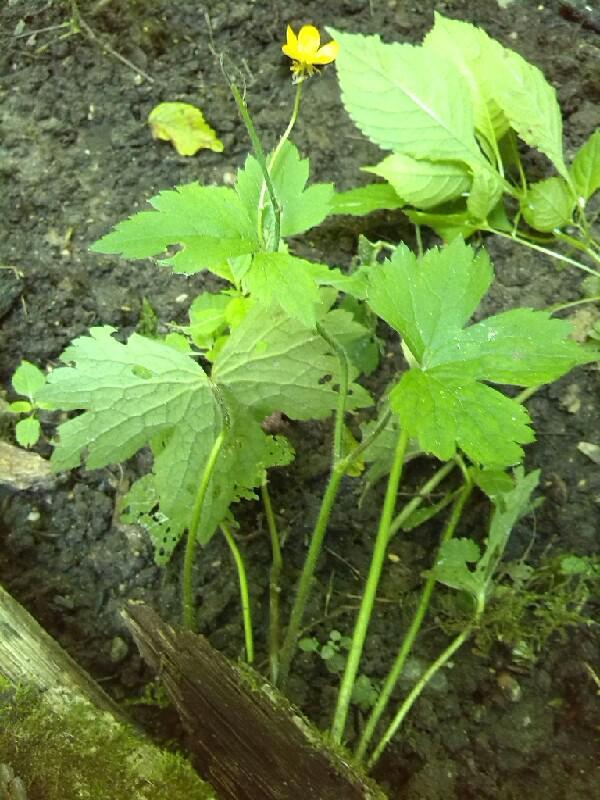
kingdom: Plantae
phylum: Tracheophyta
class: Magnoliopsida
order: Ranunculales
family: Ranunculaceae
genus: Ranunculus
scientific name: Ranunculus lanuginosus
